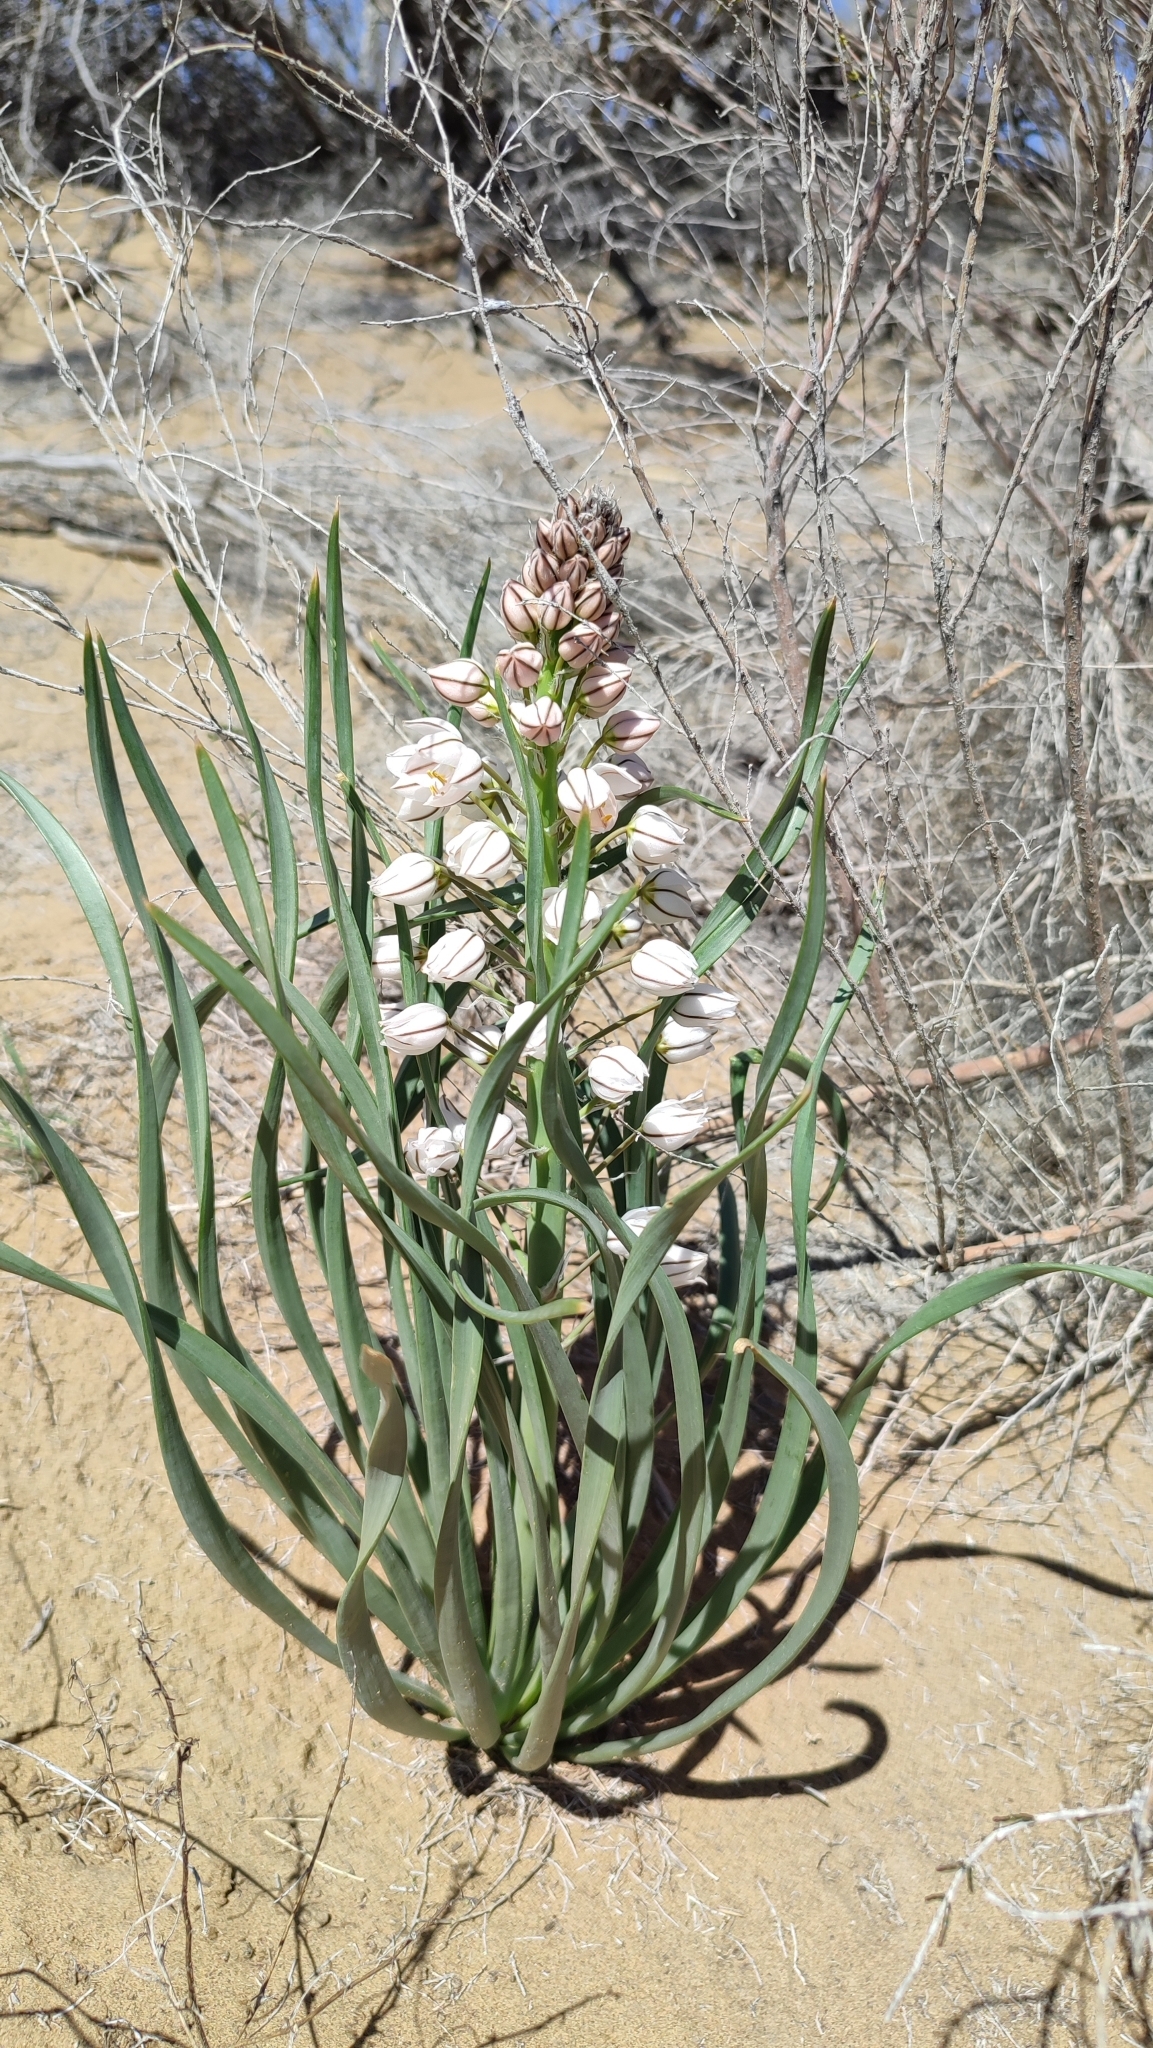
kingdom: Plantae
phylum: Tracheophyta
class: Liliopsida
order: Asparagales
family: Asphodelaceae
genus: Eremurus
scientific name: Eremurus anisopterus
